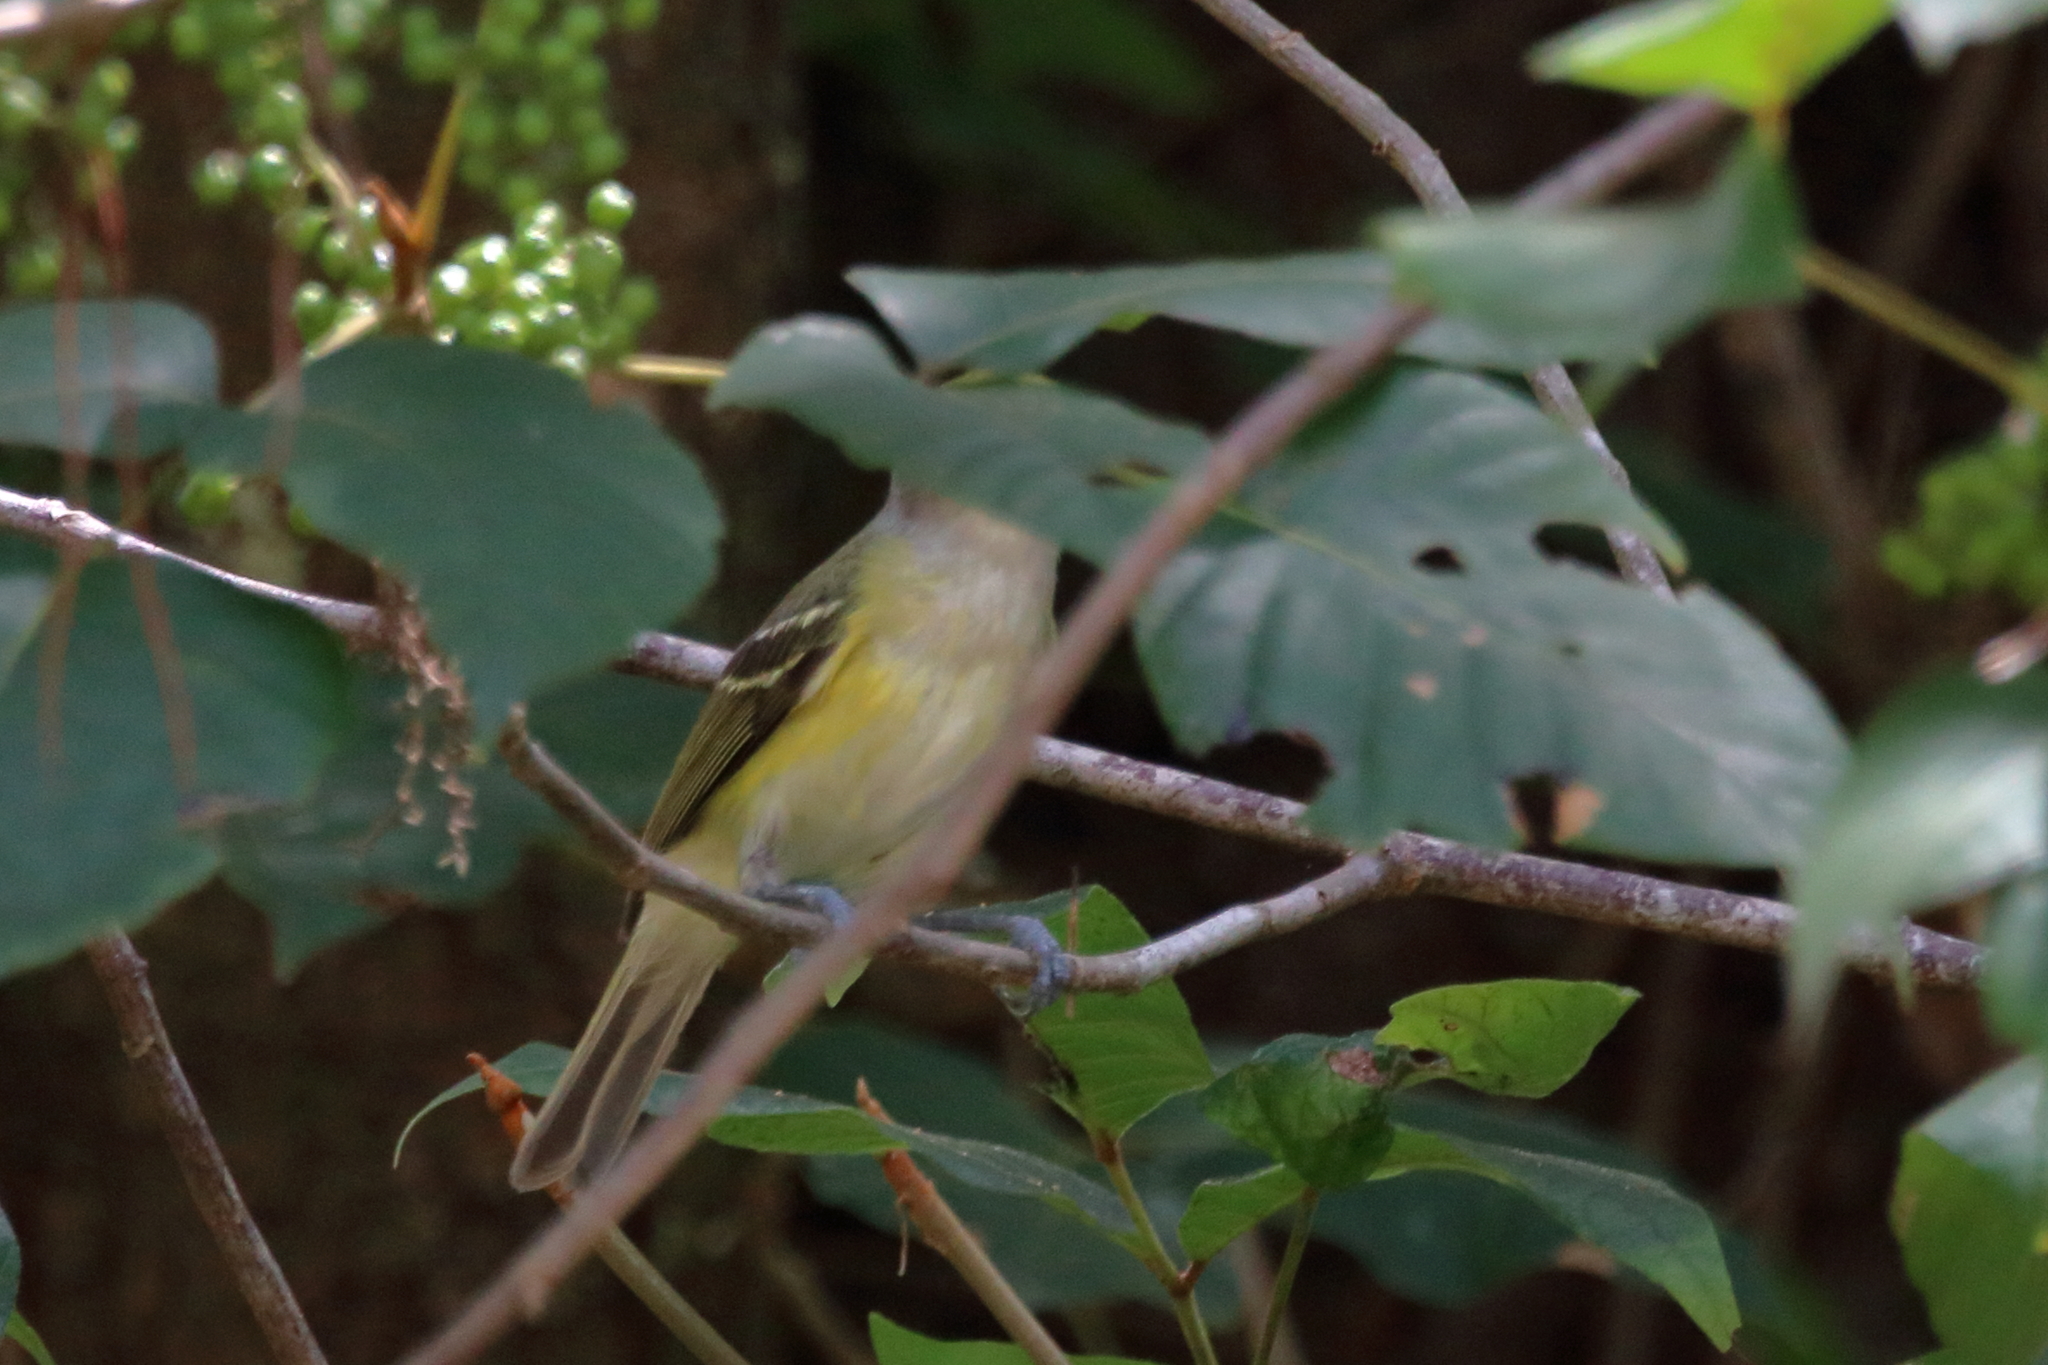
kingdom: Animalia
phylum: Chordata
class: Aves
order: Passeriformes
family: Vireonidae
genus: Vireo
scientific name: Vireo griseus
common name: White-eyed vireo
